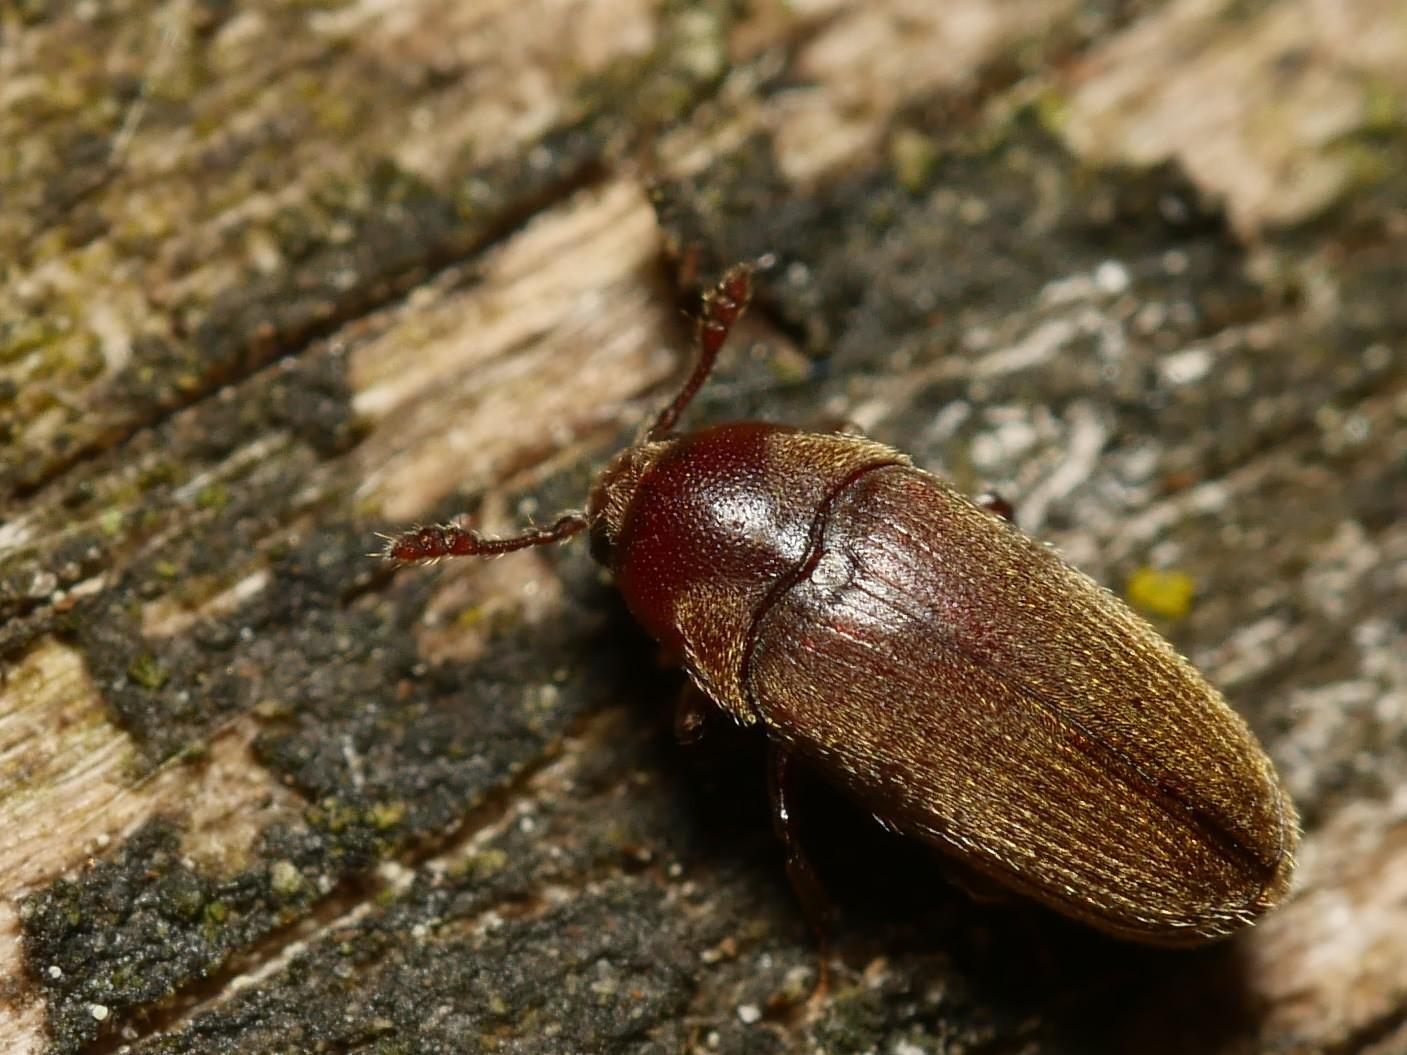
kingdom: Animalia
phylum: Arthropoda
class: Insecta
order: Coleoptera
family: Throscidae
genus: Trixagus
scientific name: Trixagus dermestoides
